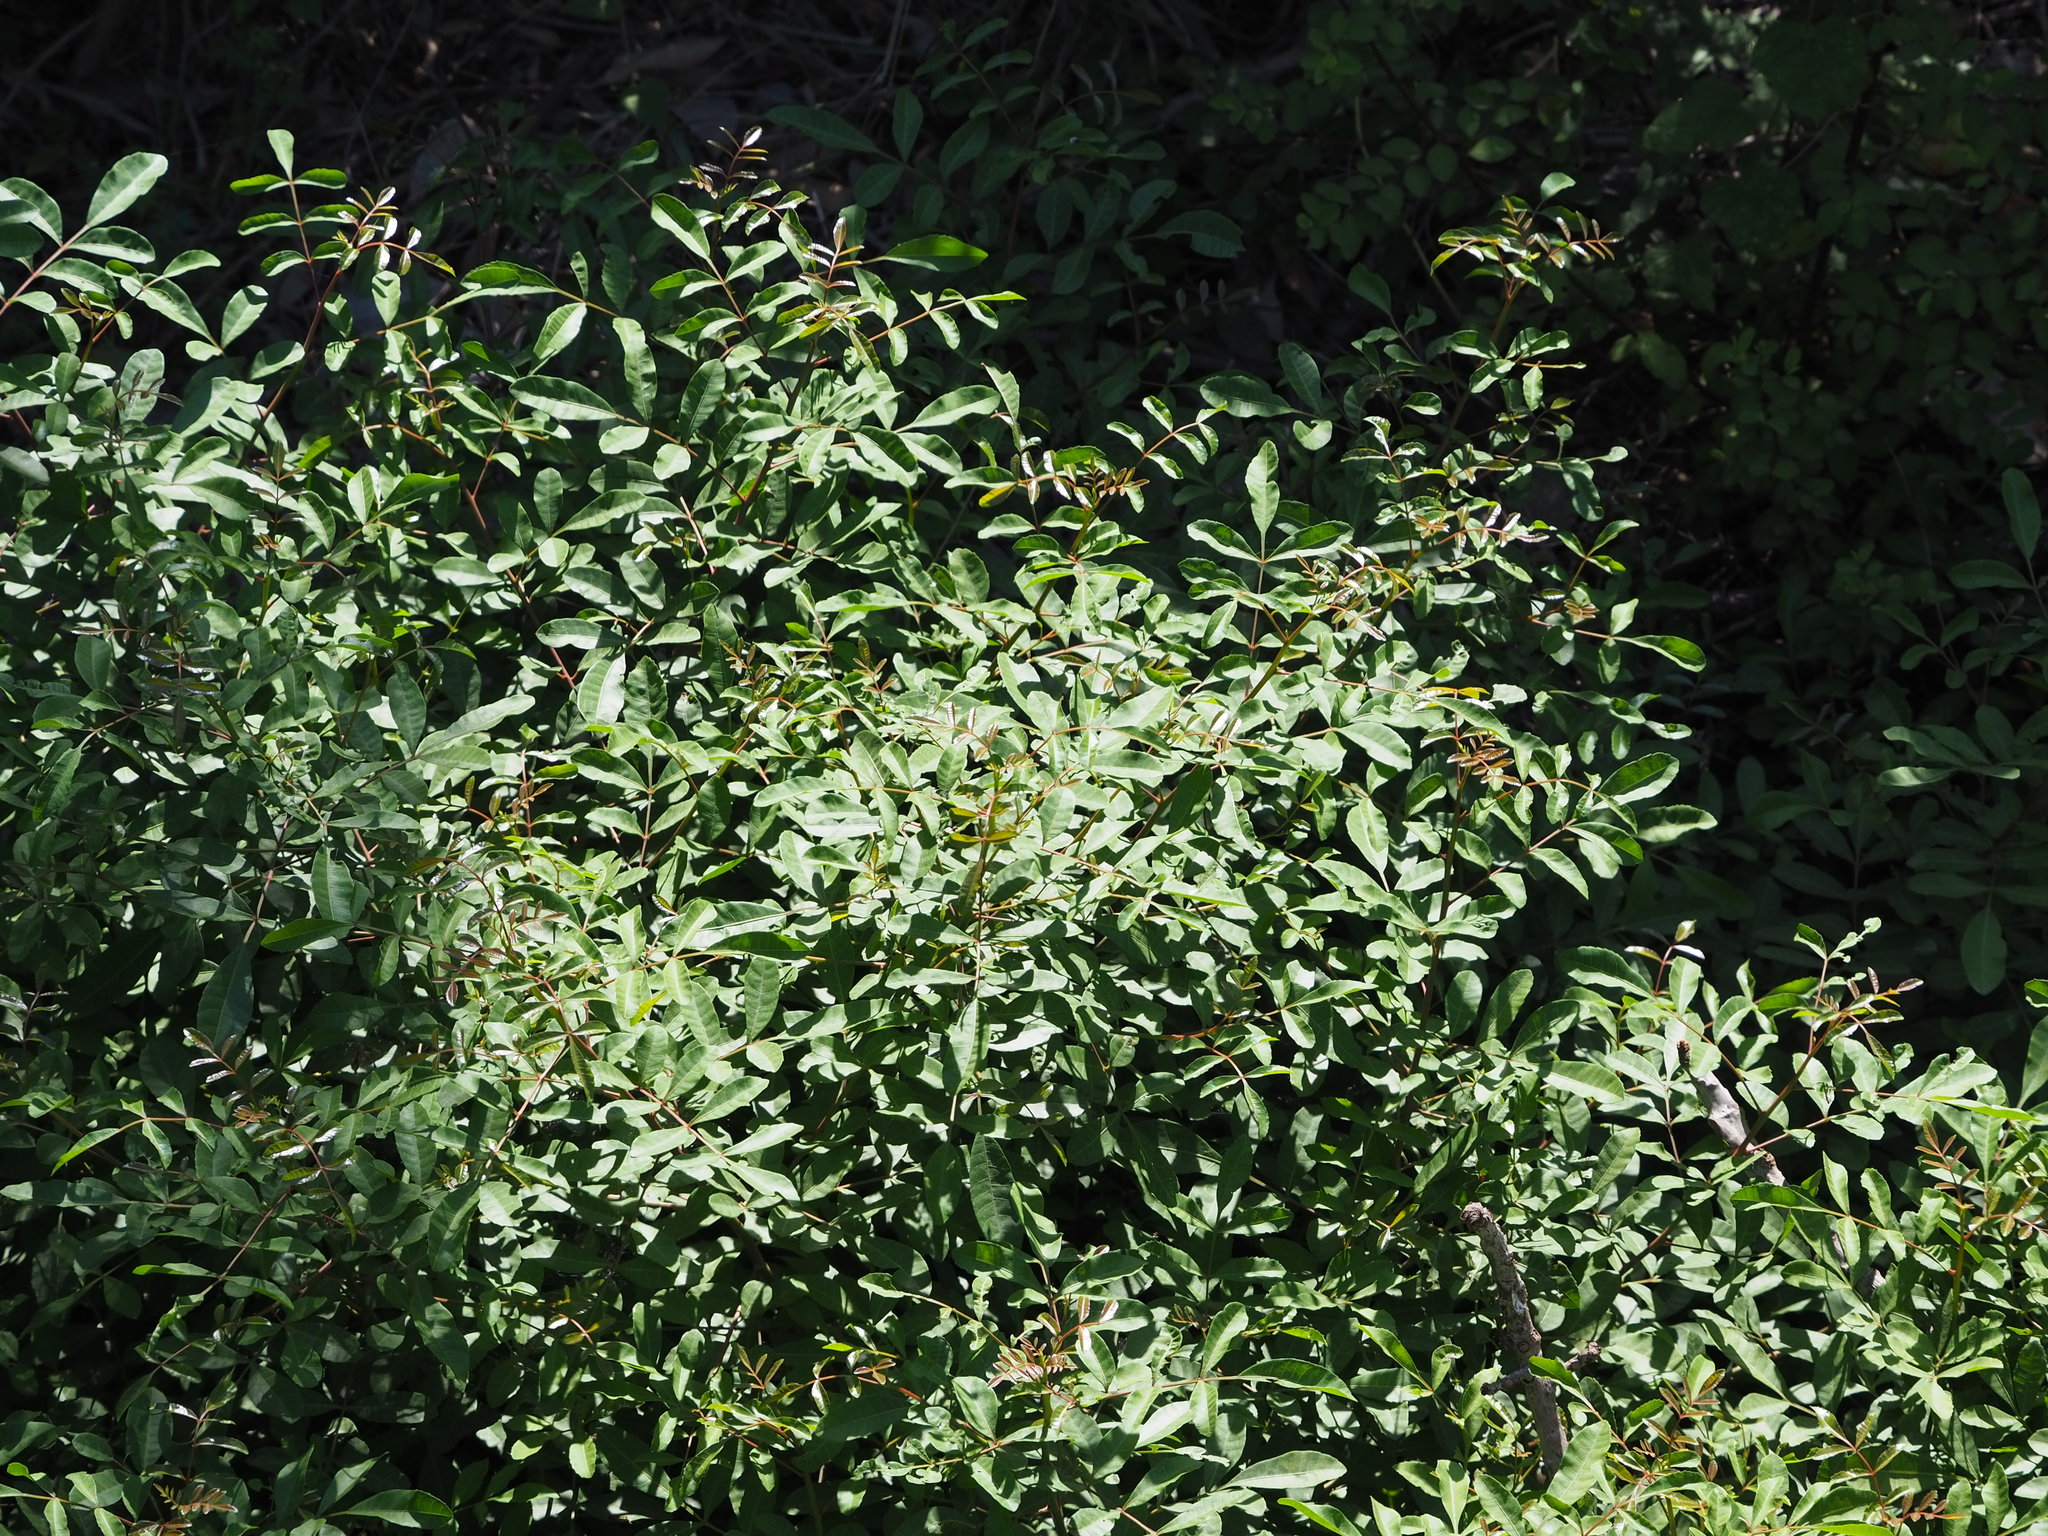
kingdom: Plantae
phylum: Tracheophyta
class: Magnoliopsida
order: Sapindales
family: Anacardiaceae
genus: Schinus
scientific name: Schinus terebinthifolia
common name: Brazilian peppertree
